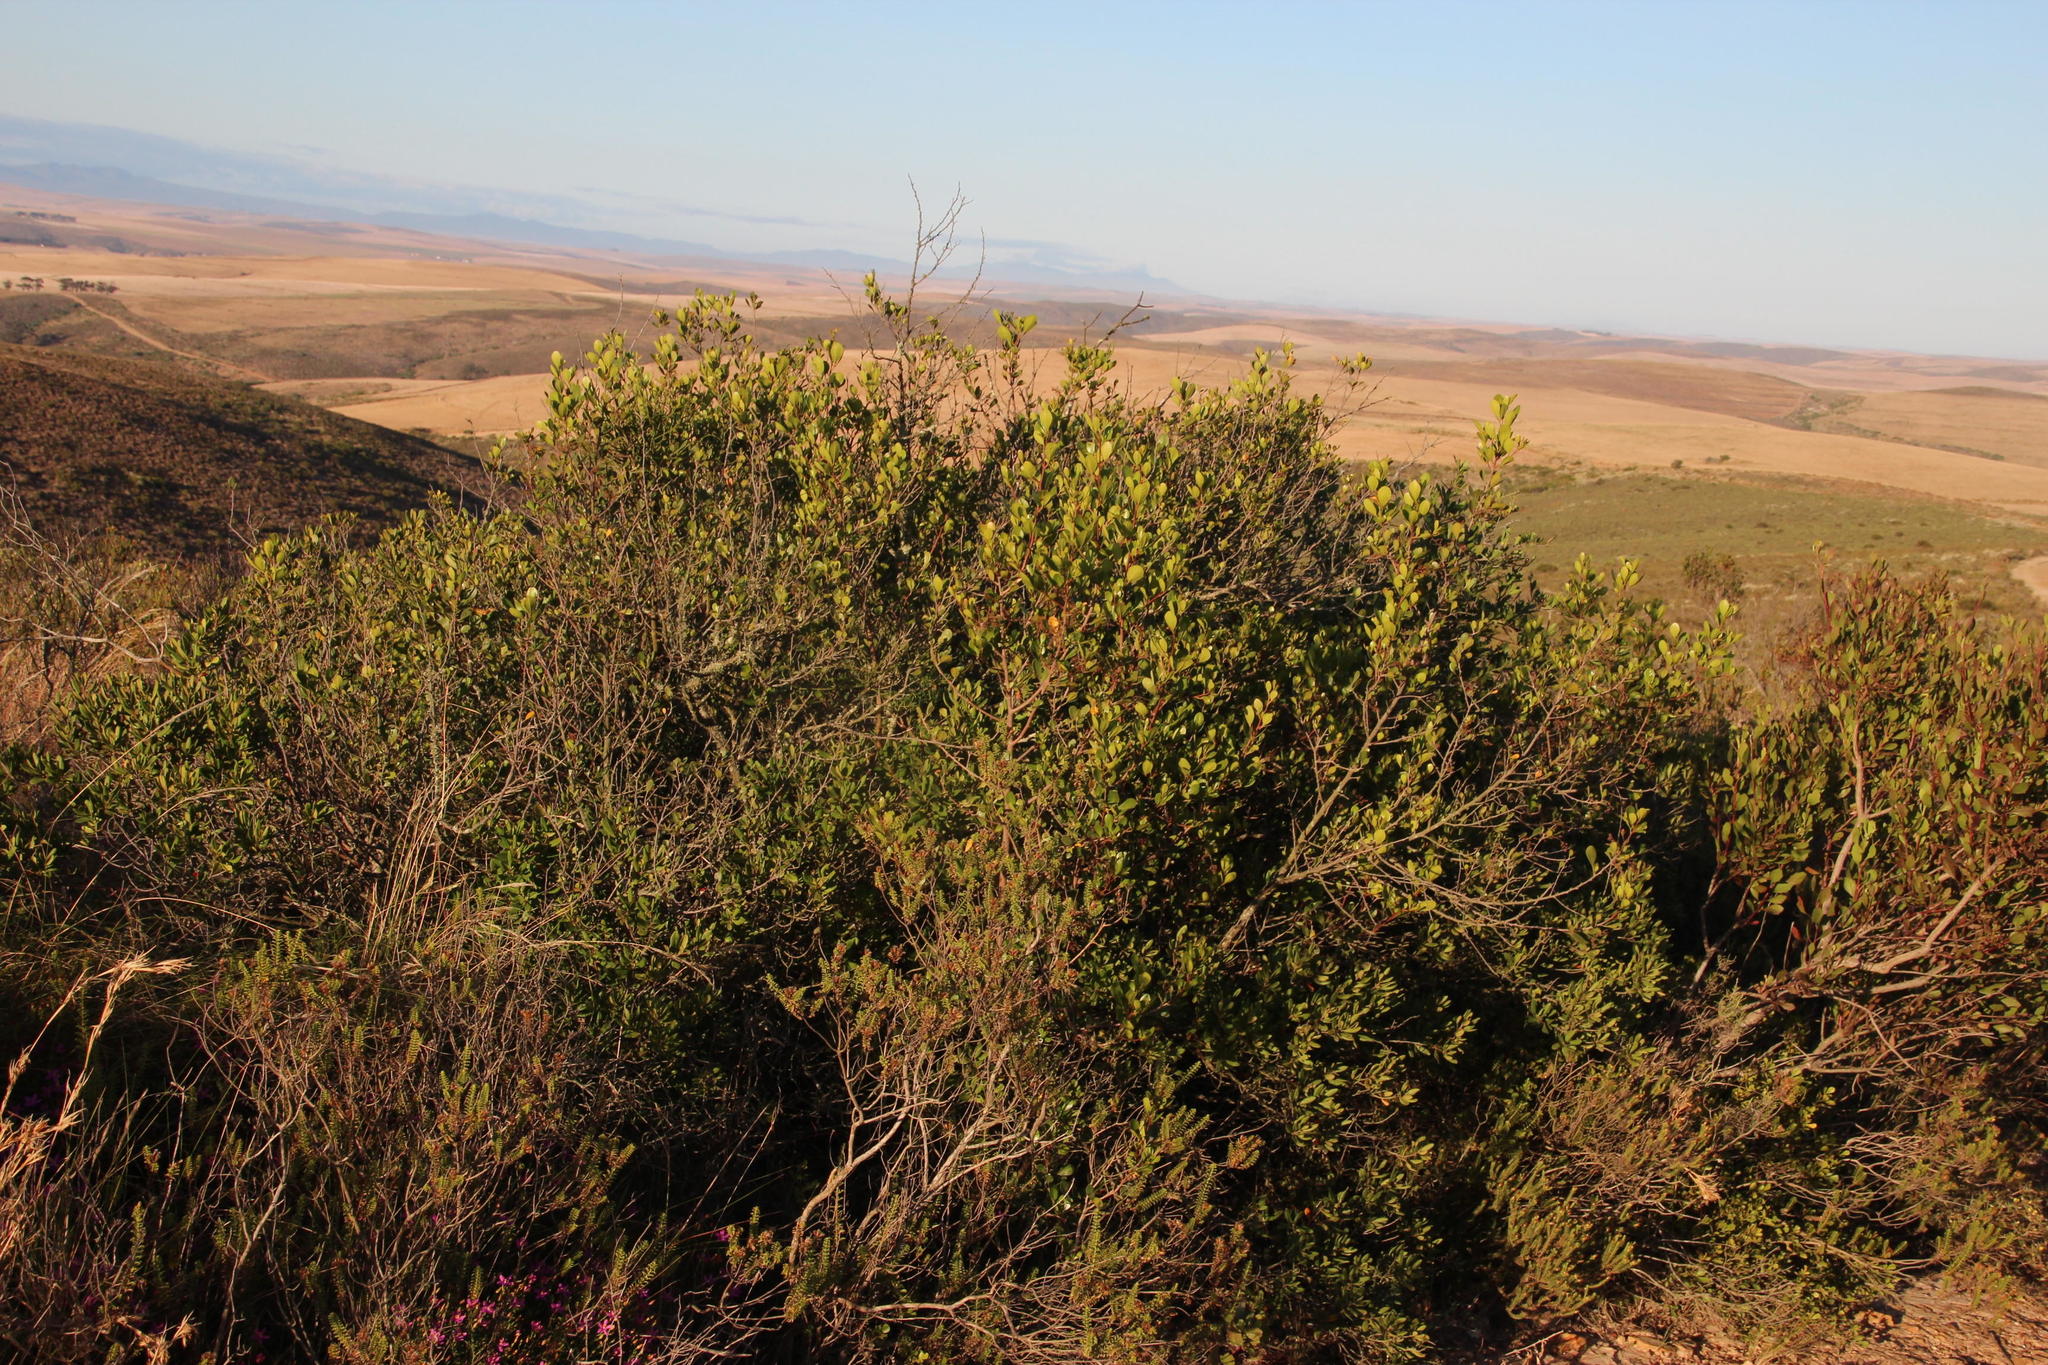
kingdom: Plantae
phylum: Tracheophyta
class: Magnoliopsida
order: Sapindales
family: Anacardiaceae
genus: Searsia
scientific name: Searsia lucida
